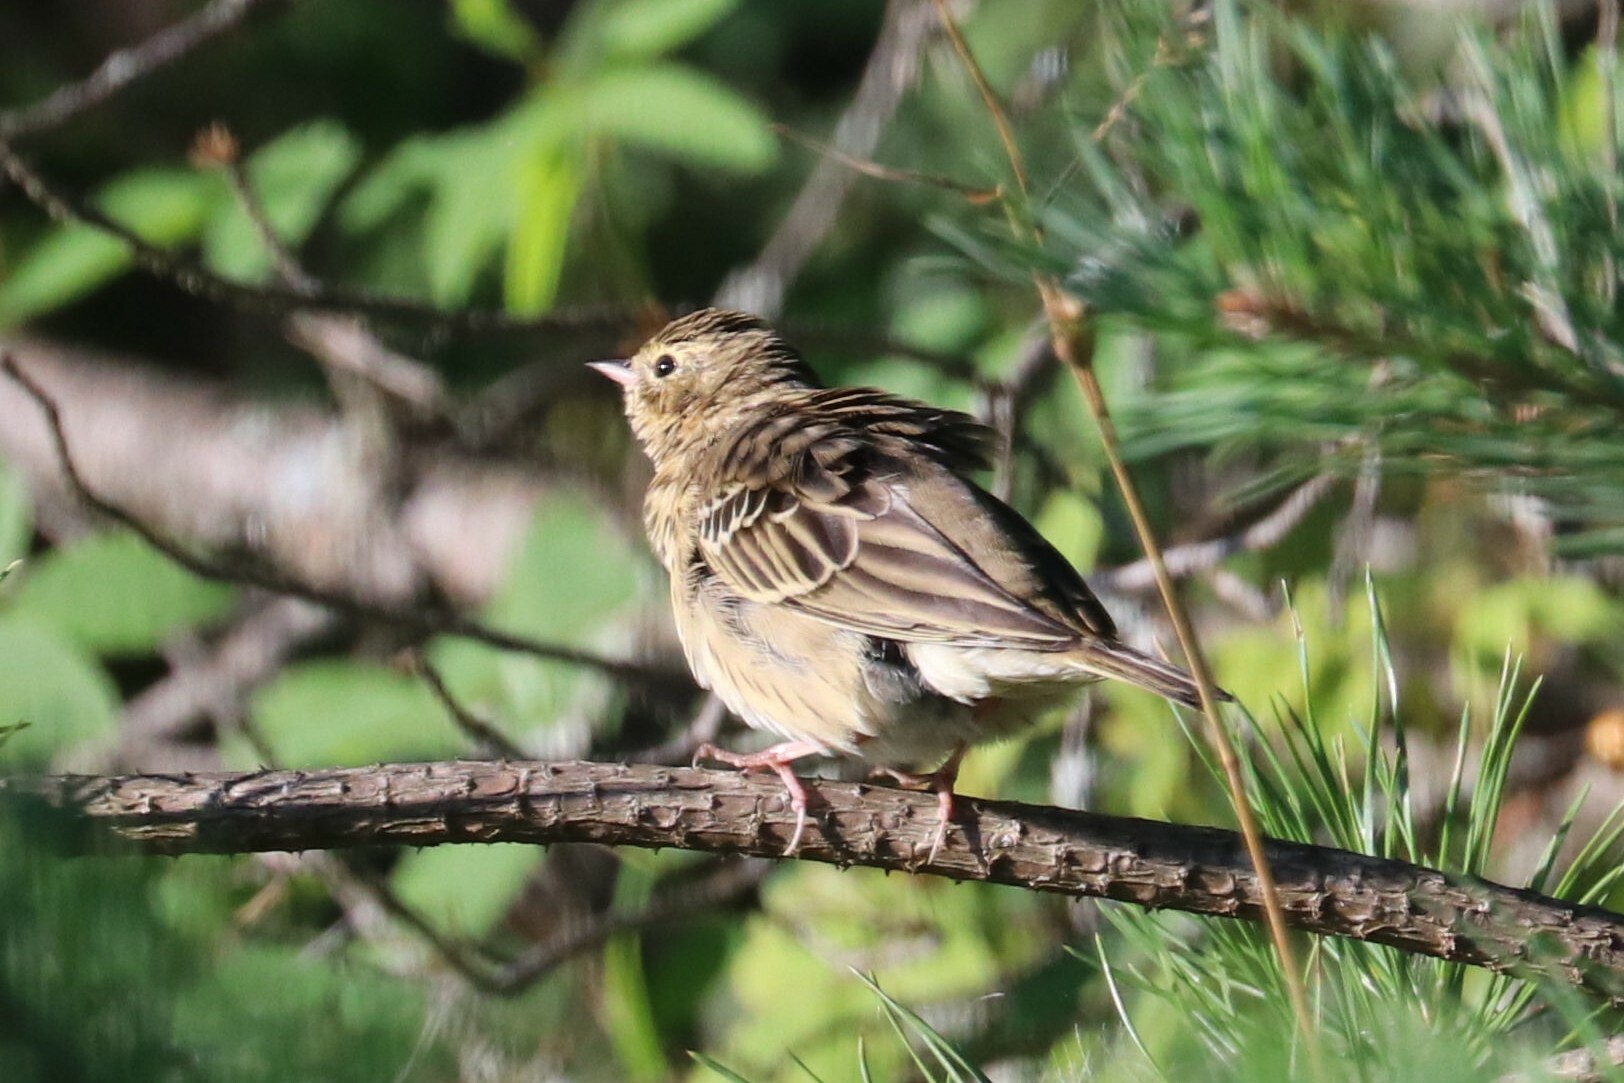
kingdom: Animalia
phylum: Chordata
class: Aves
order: Passeriformes
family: Motacillidae
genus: Anthus
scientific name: Anthus trivialis
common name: Tree pipit
